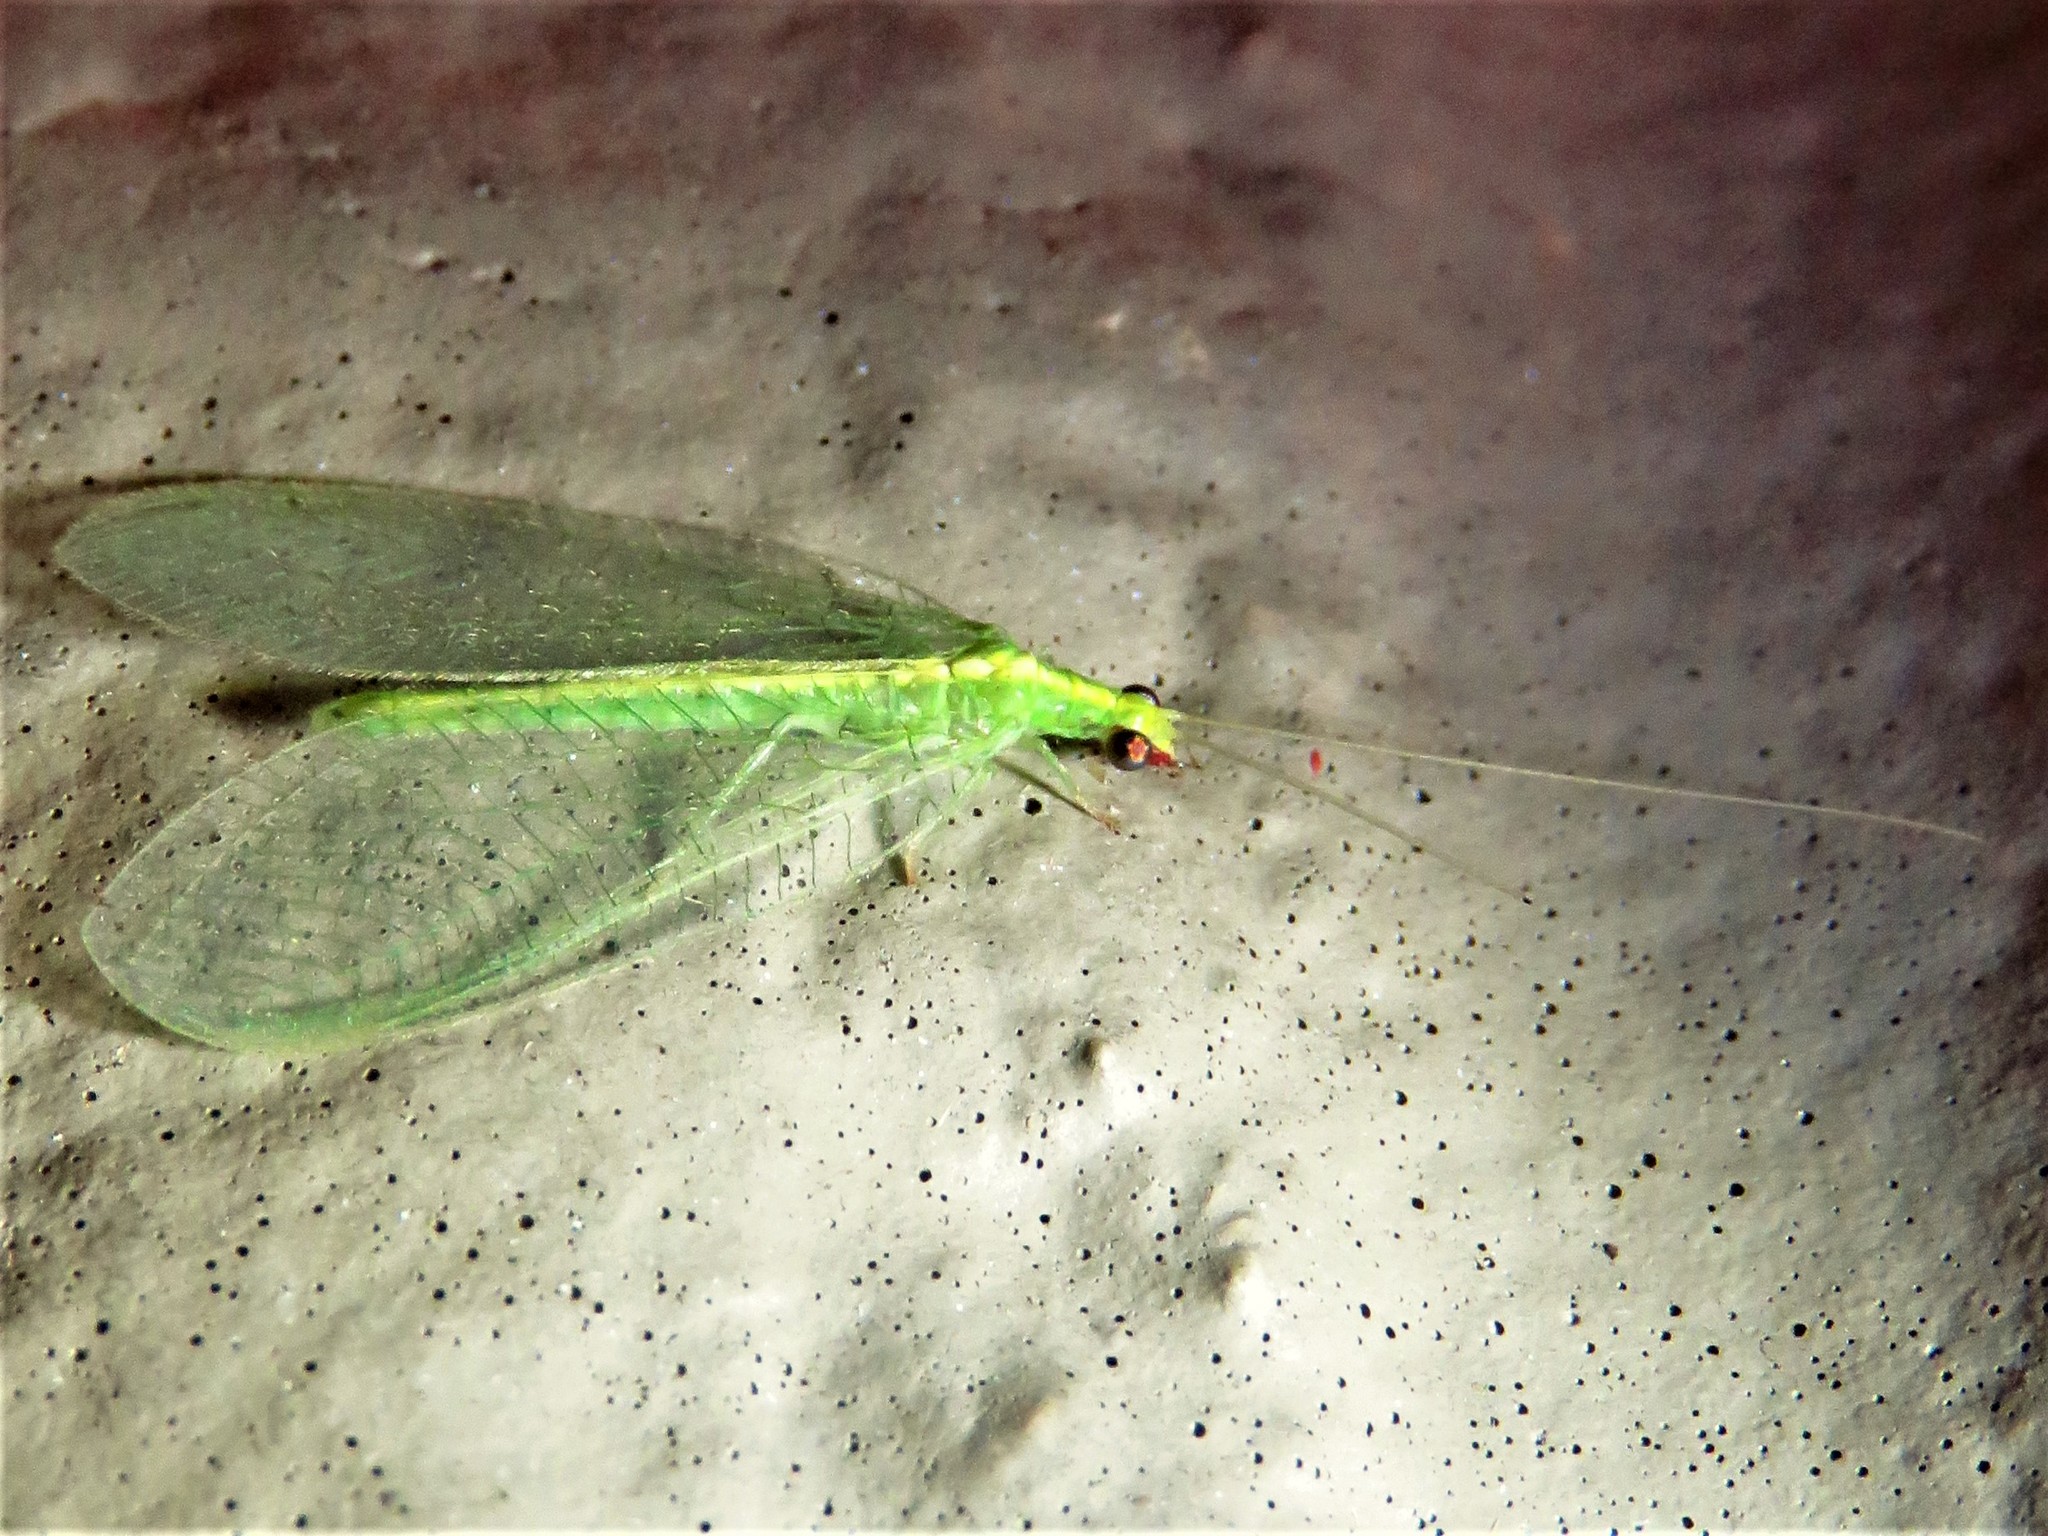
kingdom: Animalia
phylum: Arthropoda
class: Insecta
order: Neuroptera
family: Chrysopidae
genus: Chrysoperla
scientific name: Chrysoperla rufilabris
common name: Red-lipped green lacewing
